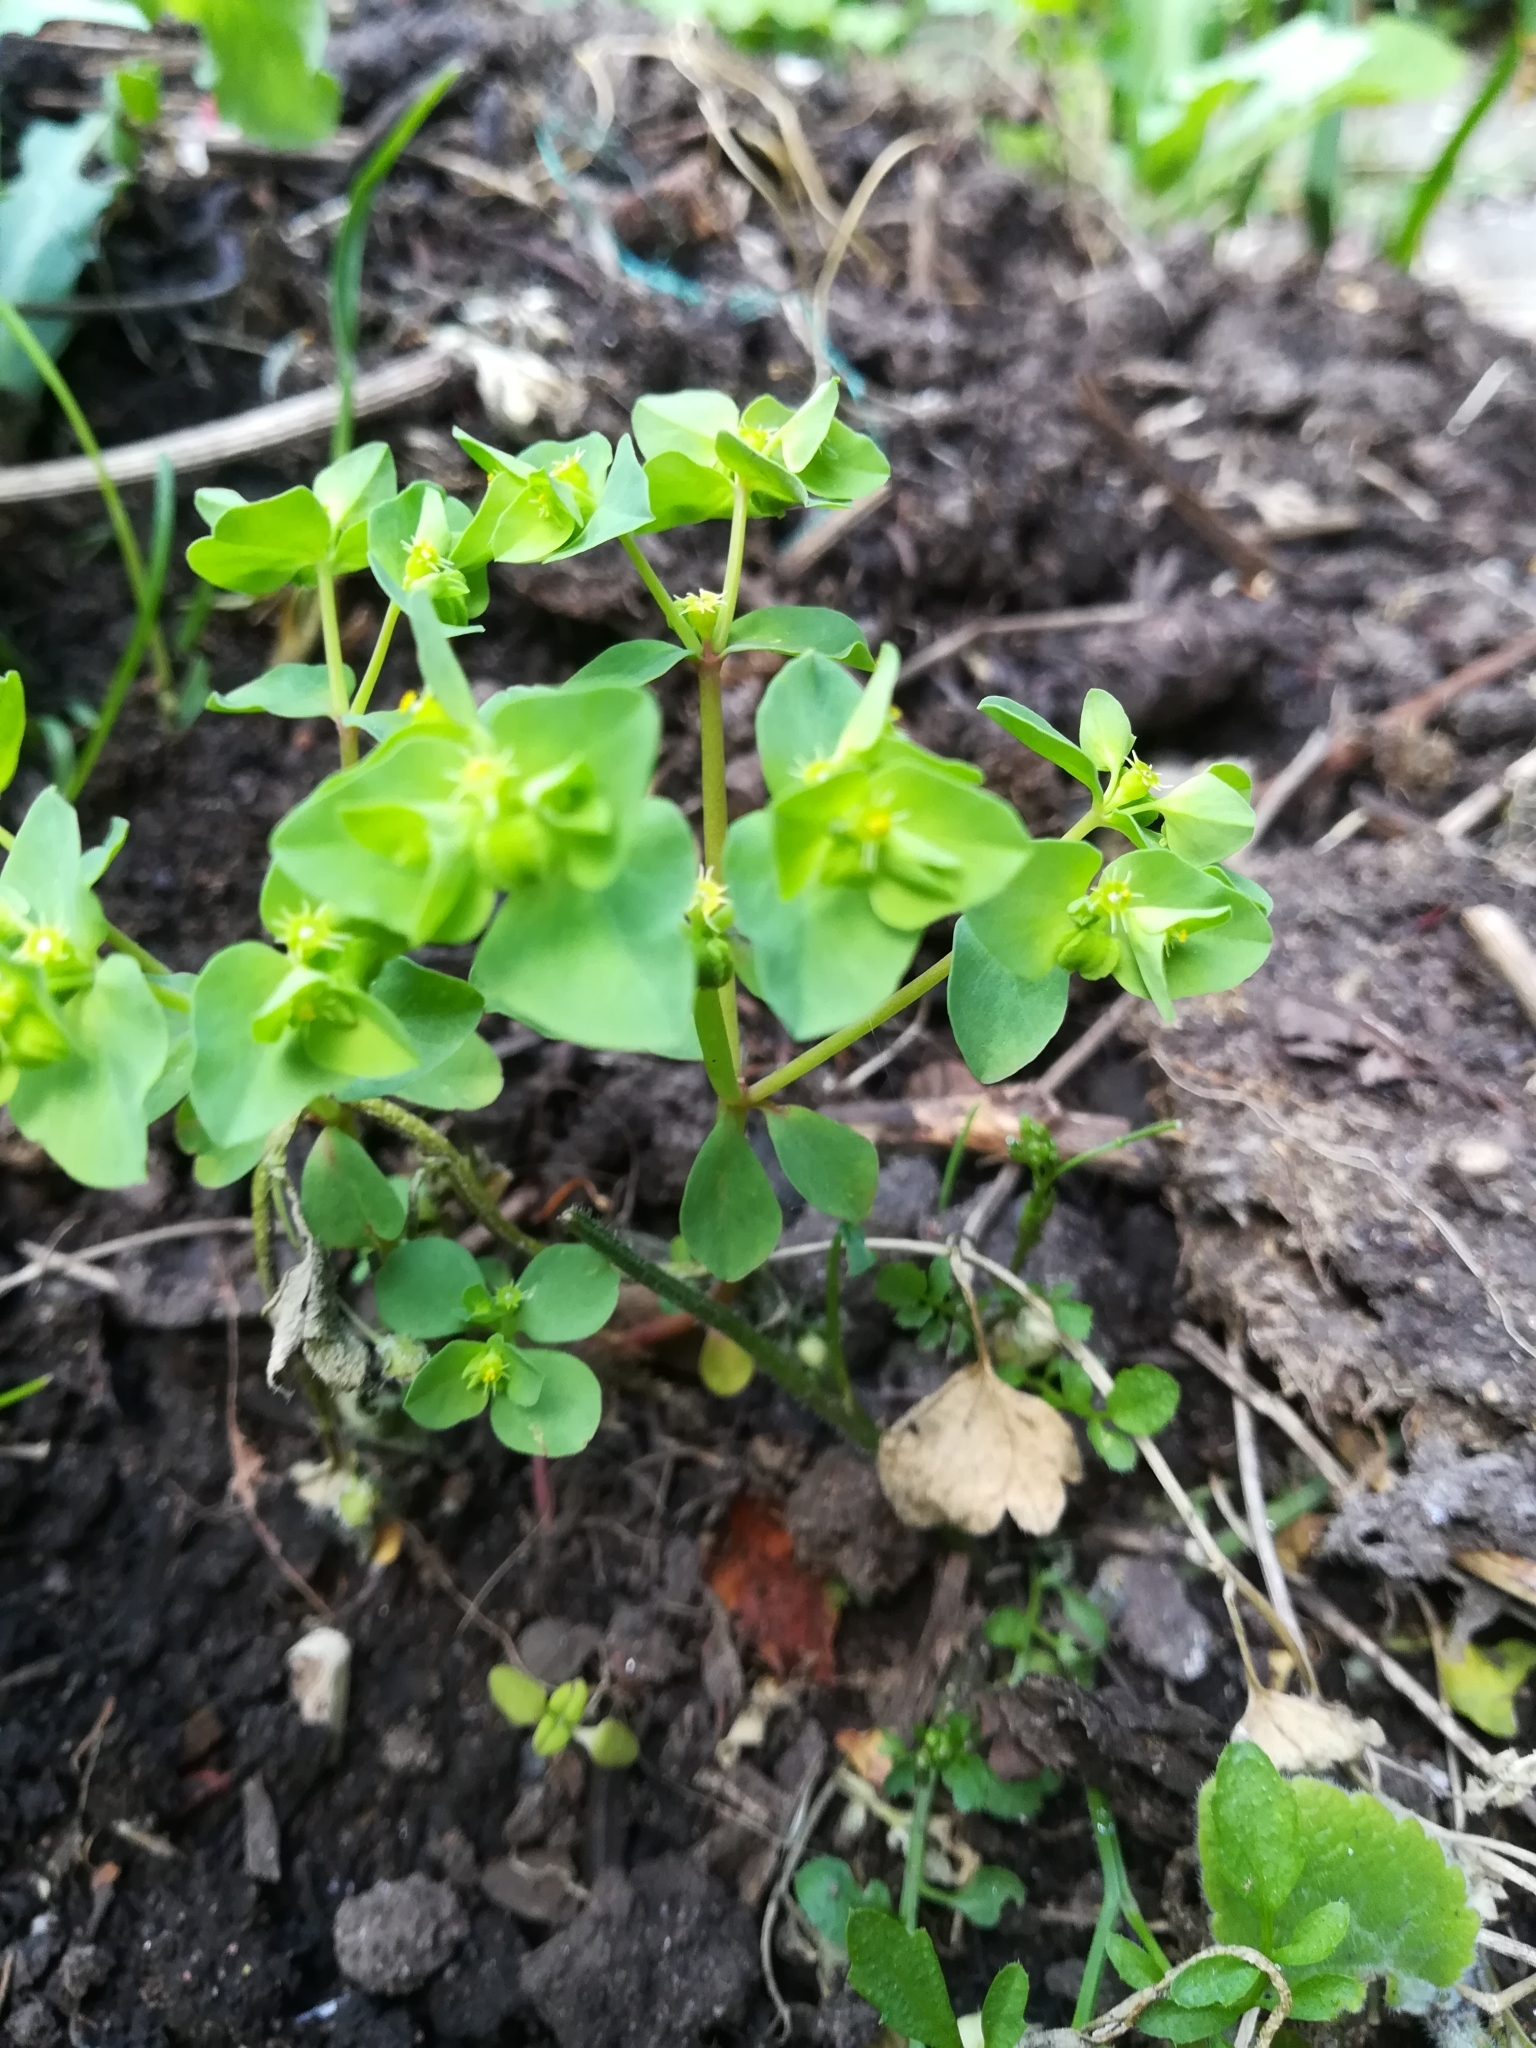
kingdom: Plantae
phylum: Tracheophyta
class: Magnoliopsida
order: Malpighiales
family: Euphorbiaceae
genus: Euphorbia
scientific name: Euphorbia peplus
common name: Petty spurge
